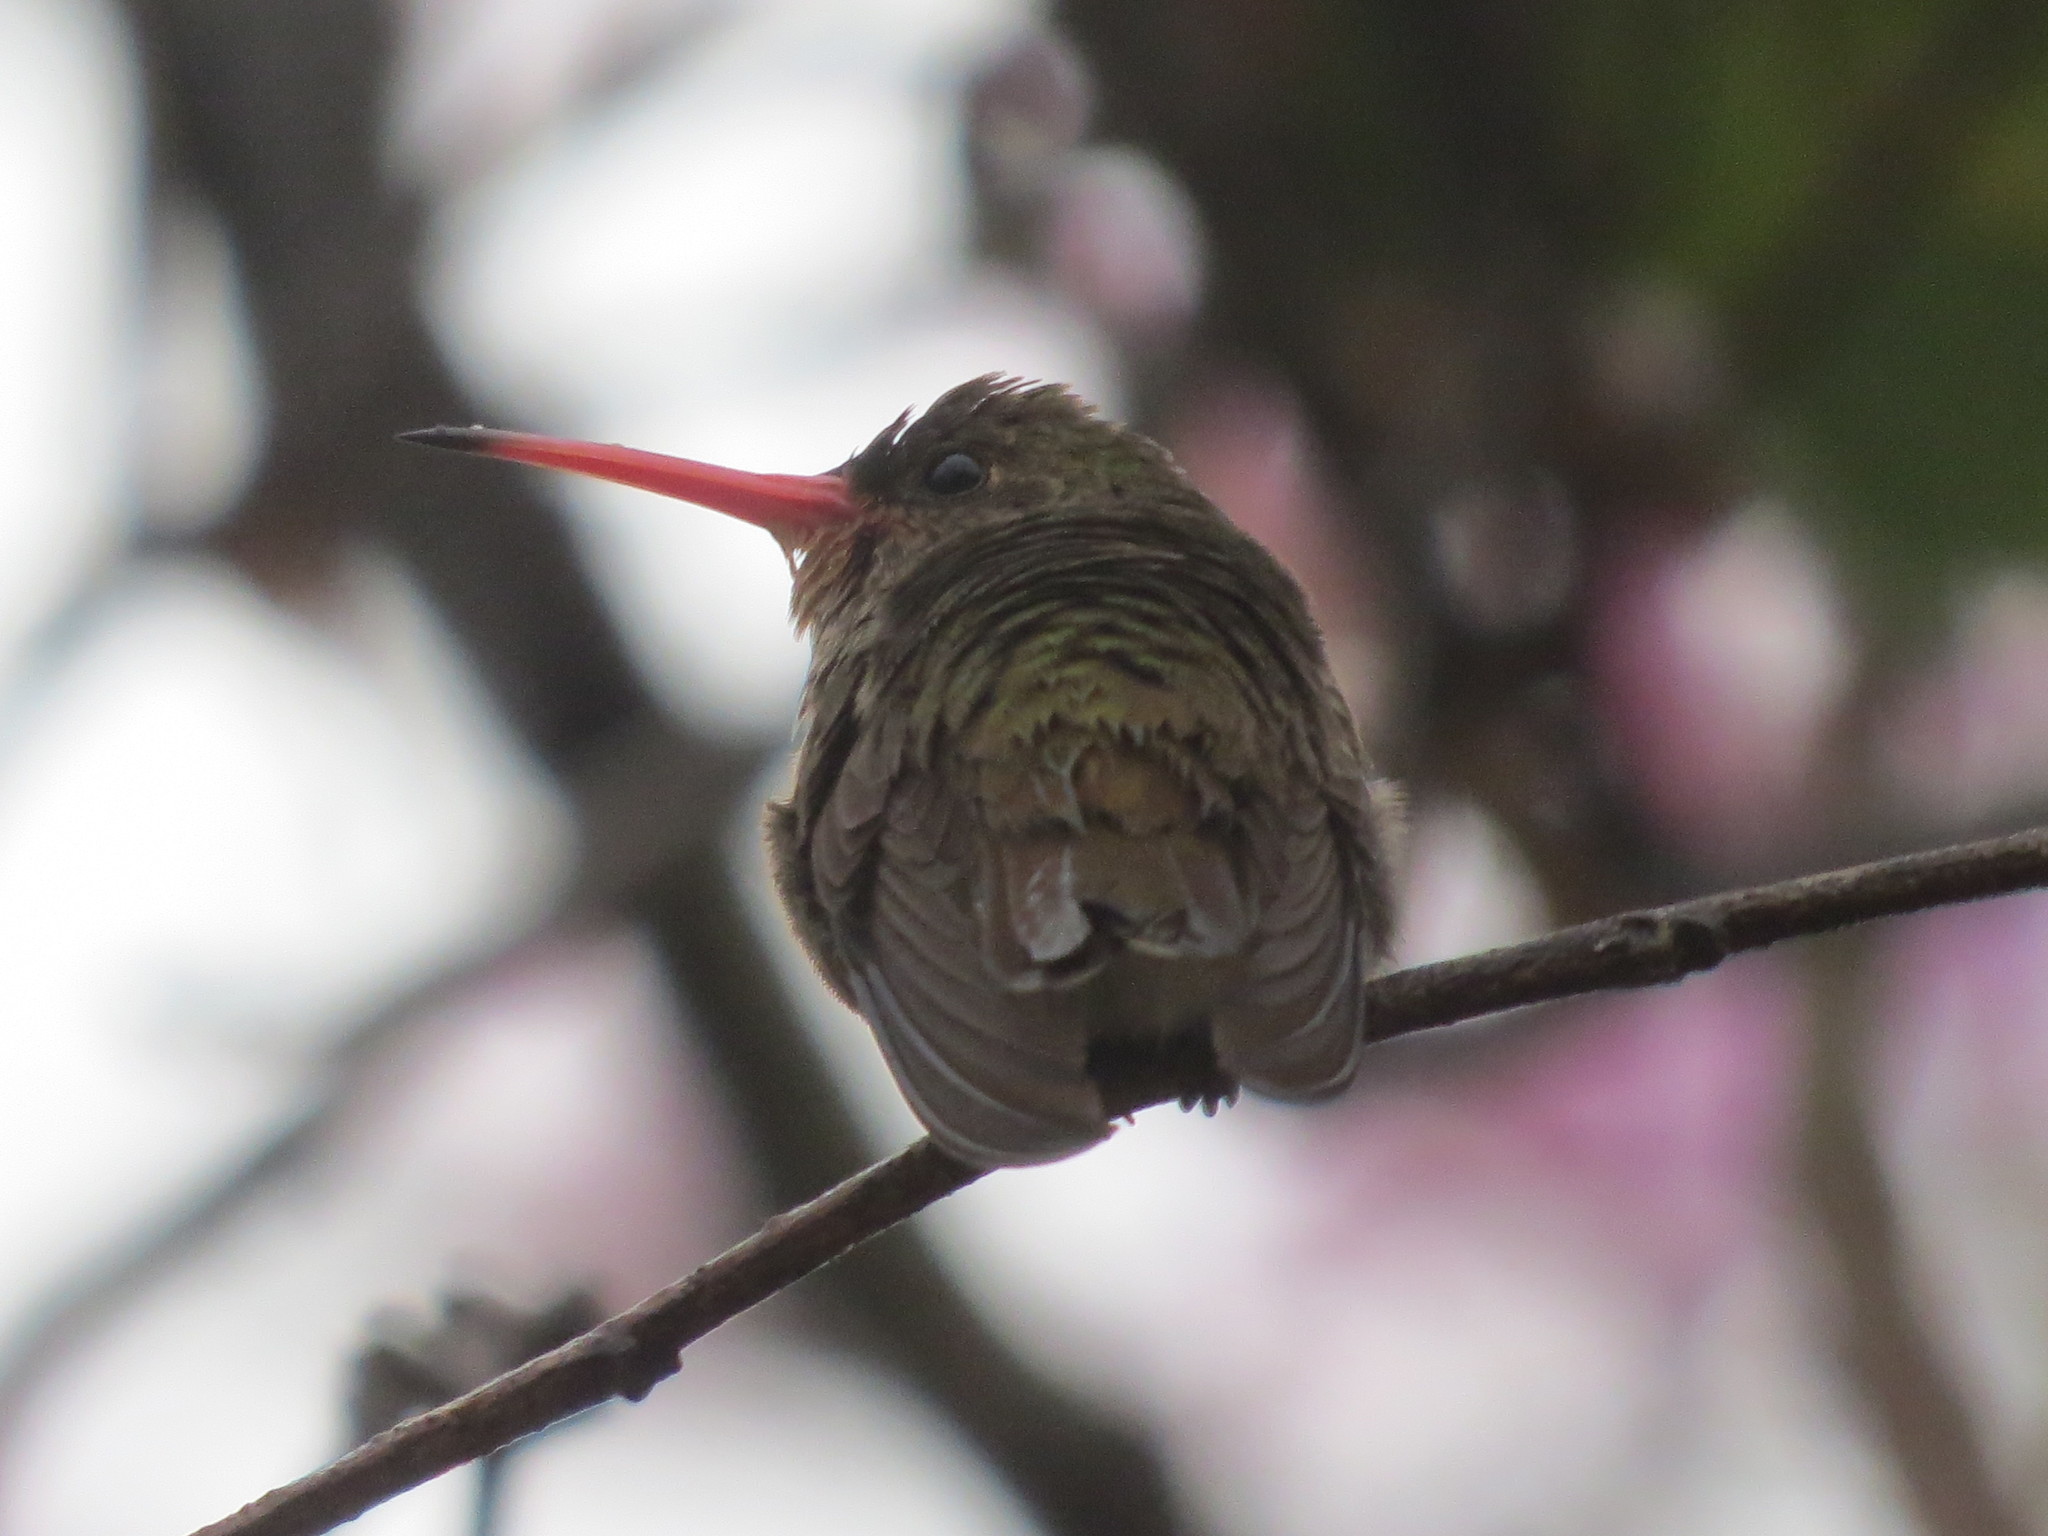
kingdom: Animalia
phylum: Chordata
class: Aves
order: Apodiformes
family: Trochilidae
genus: Hylocharis
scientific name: Hylocharis chrysura
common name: Gilded sapphire
